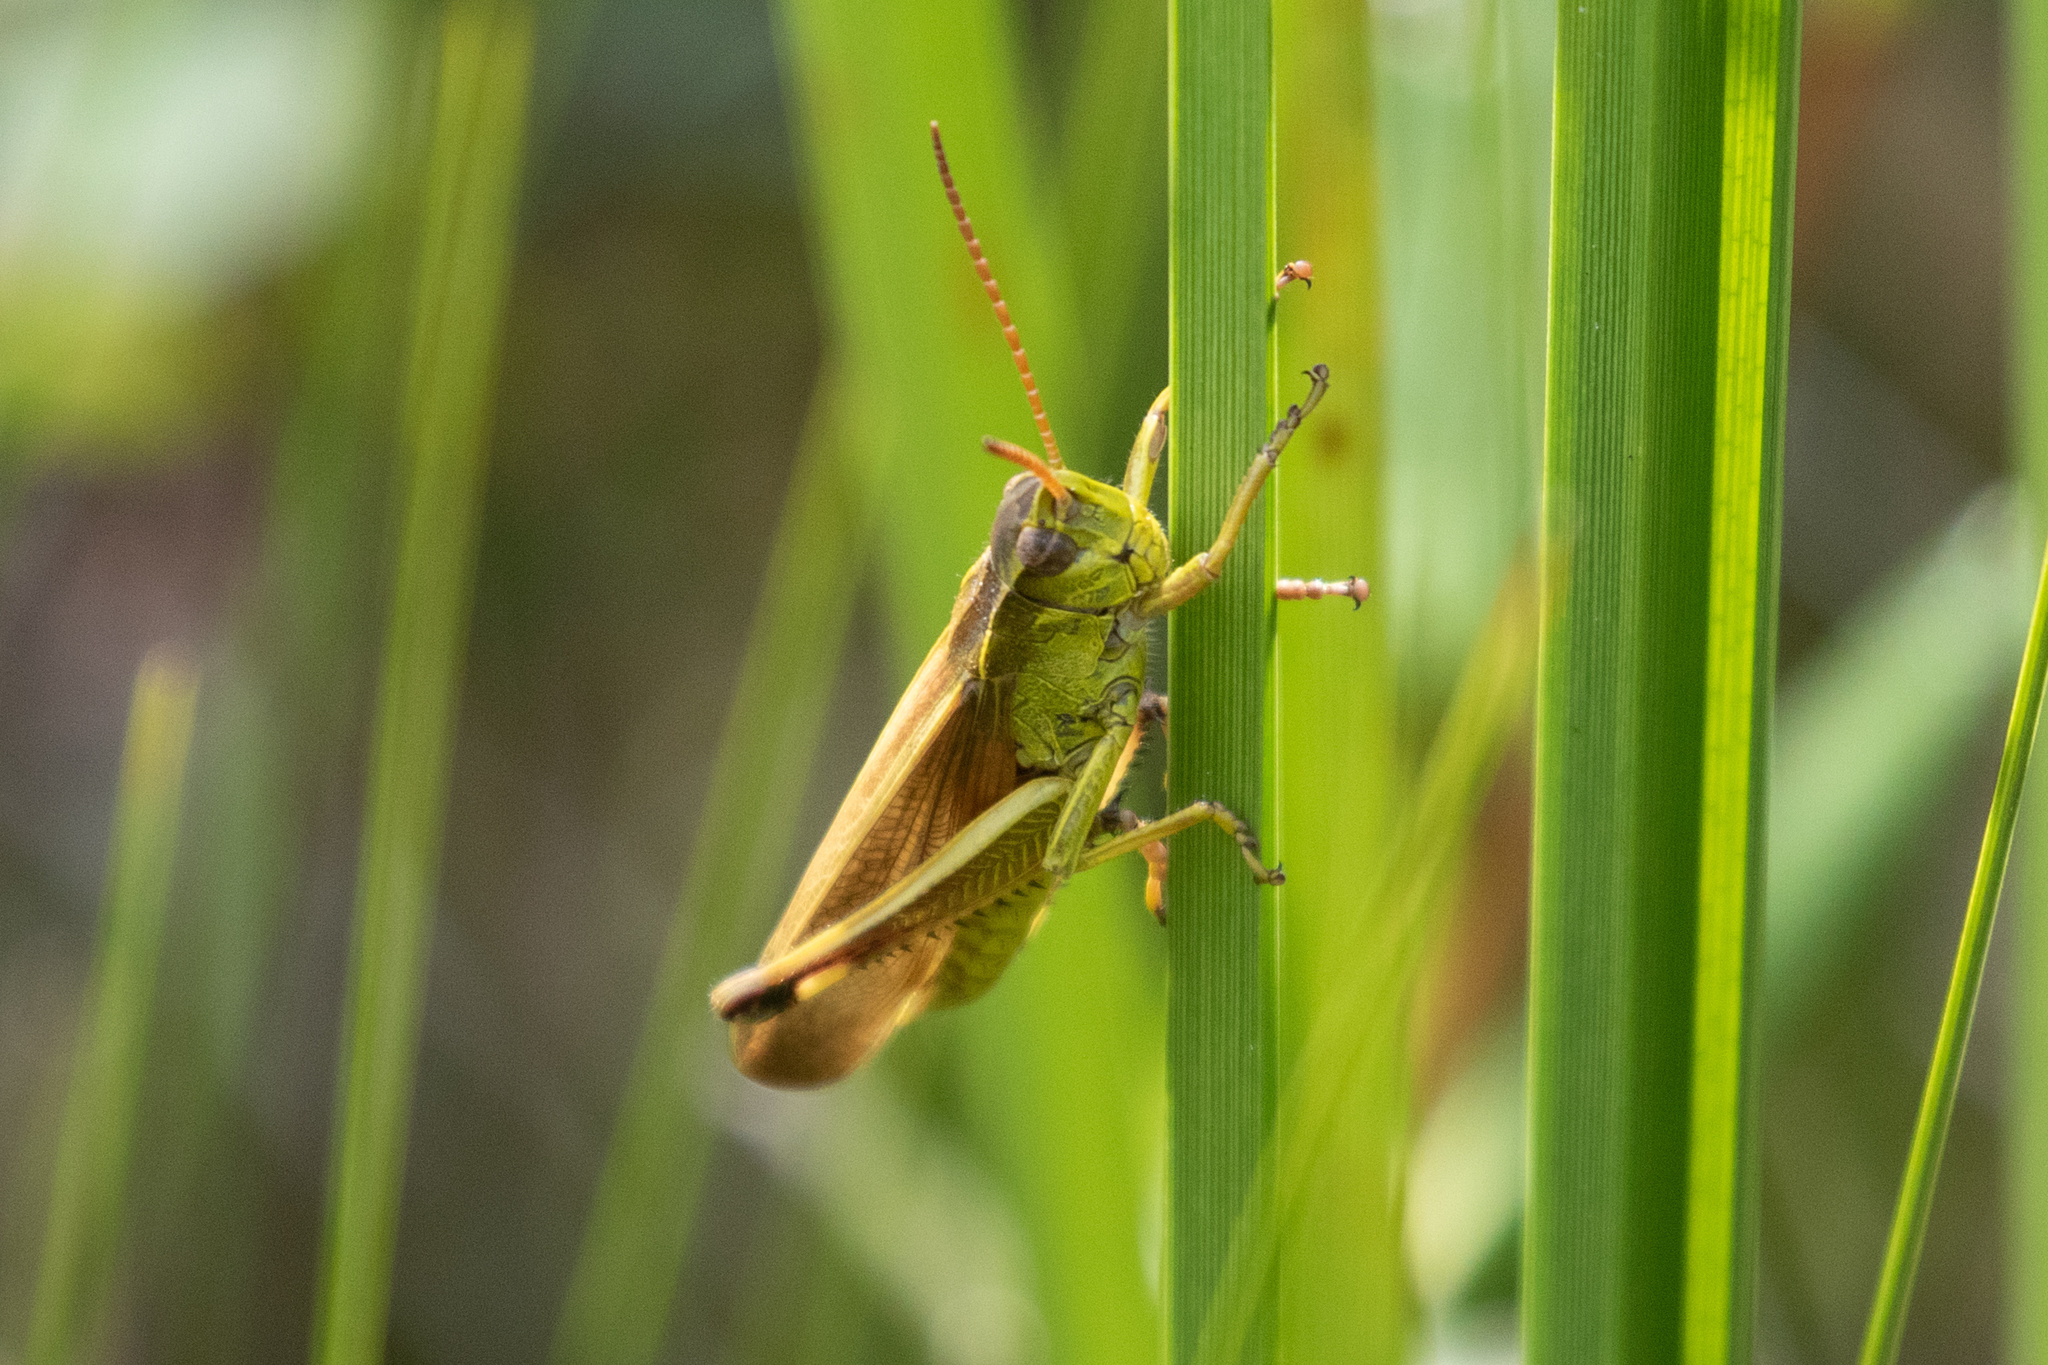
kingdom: Animalia
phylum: Arthropoda
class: Insecta
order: Orthoptera
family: Acrididae
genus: Stethophyma
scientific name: Stethophyma gracile
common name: Graceful sedge grasshopper
